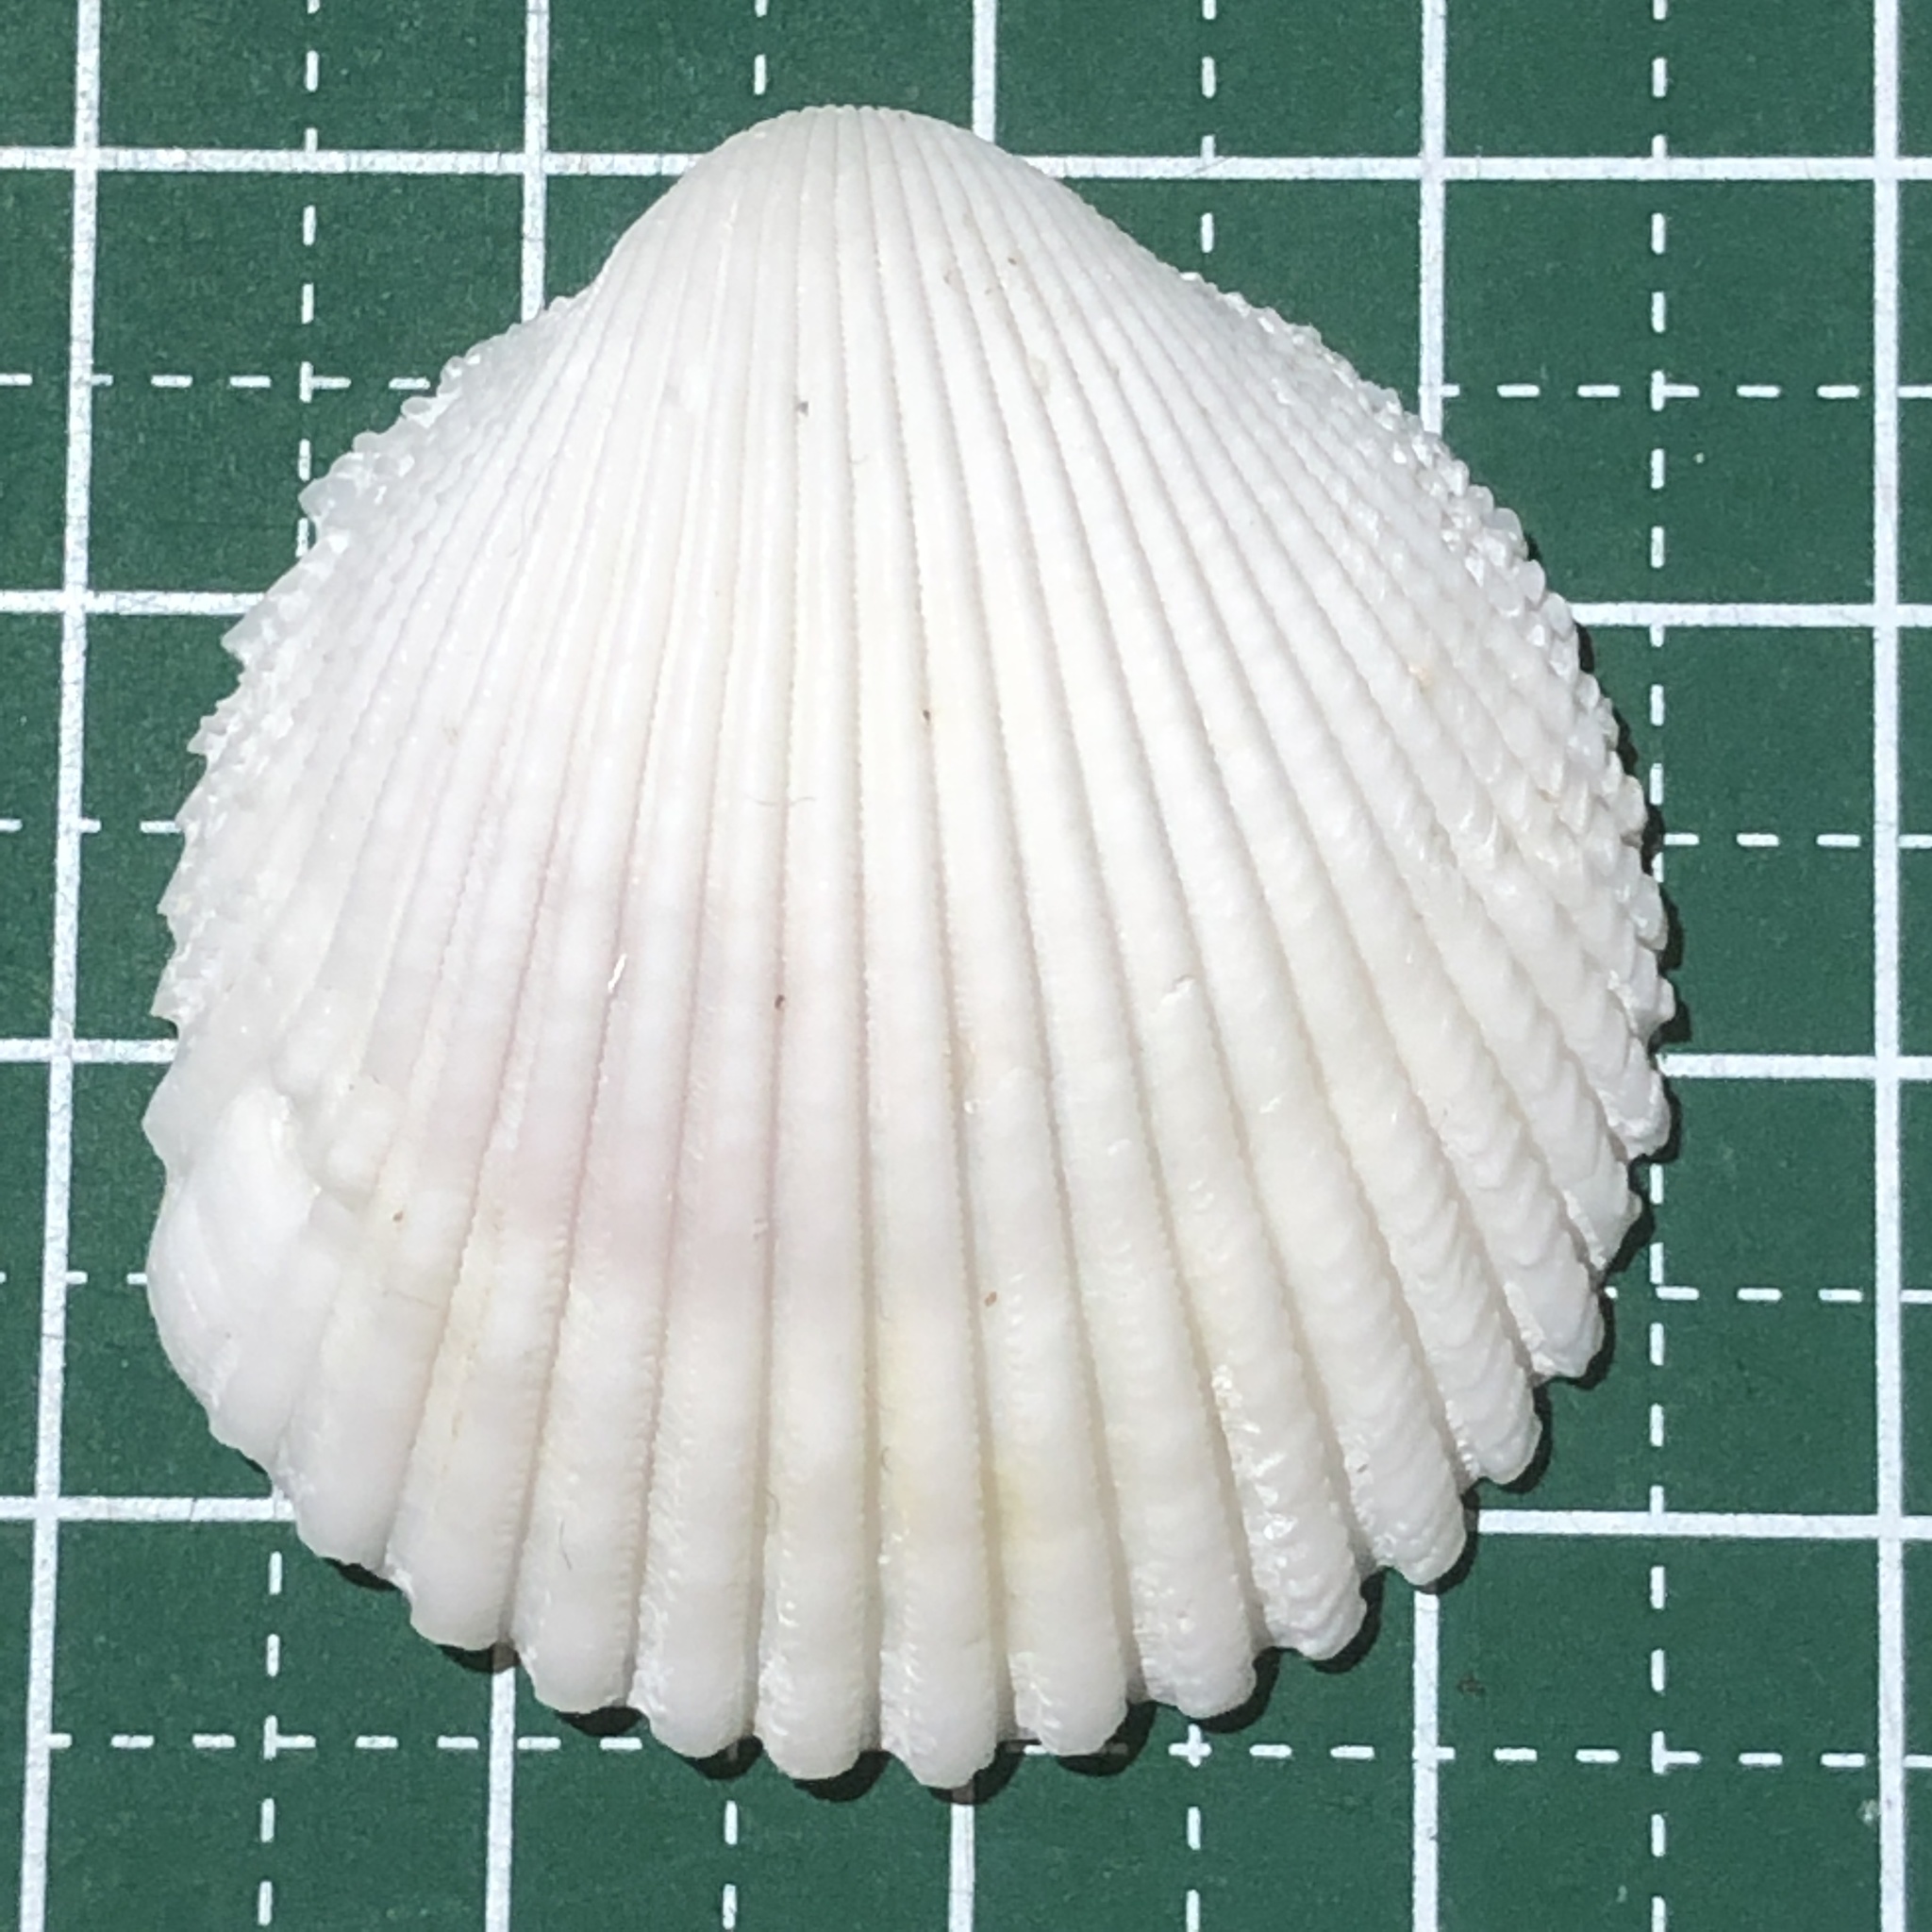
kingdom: Animalia
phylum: Mollusca
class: Bivalvia
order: Cardiida
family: Cardiidae
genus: Vasticardium
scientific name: Vasticardium flavum
